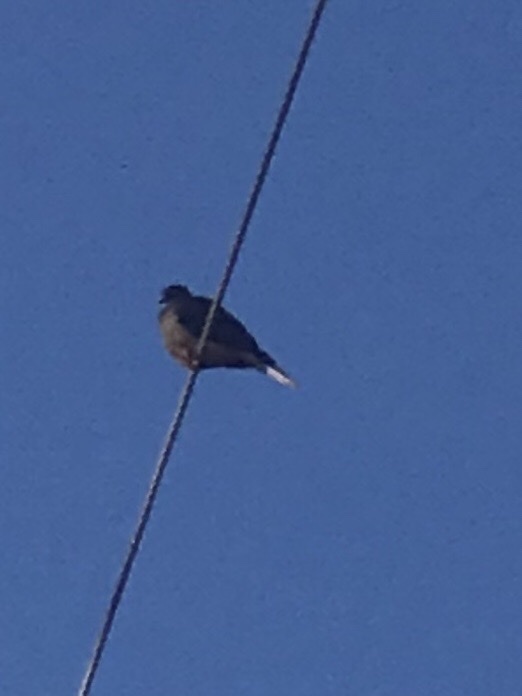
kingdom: Animalia
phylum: Chordata
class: Aves
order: Columbiformes
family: Columbidae
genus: Zenaida
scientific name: Zenaida macroura
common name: Mourning dove
